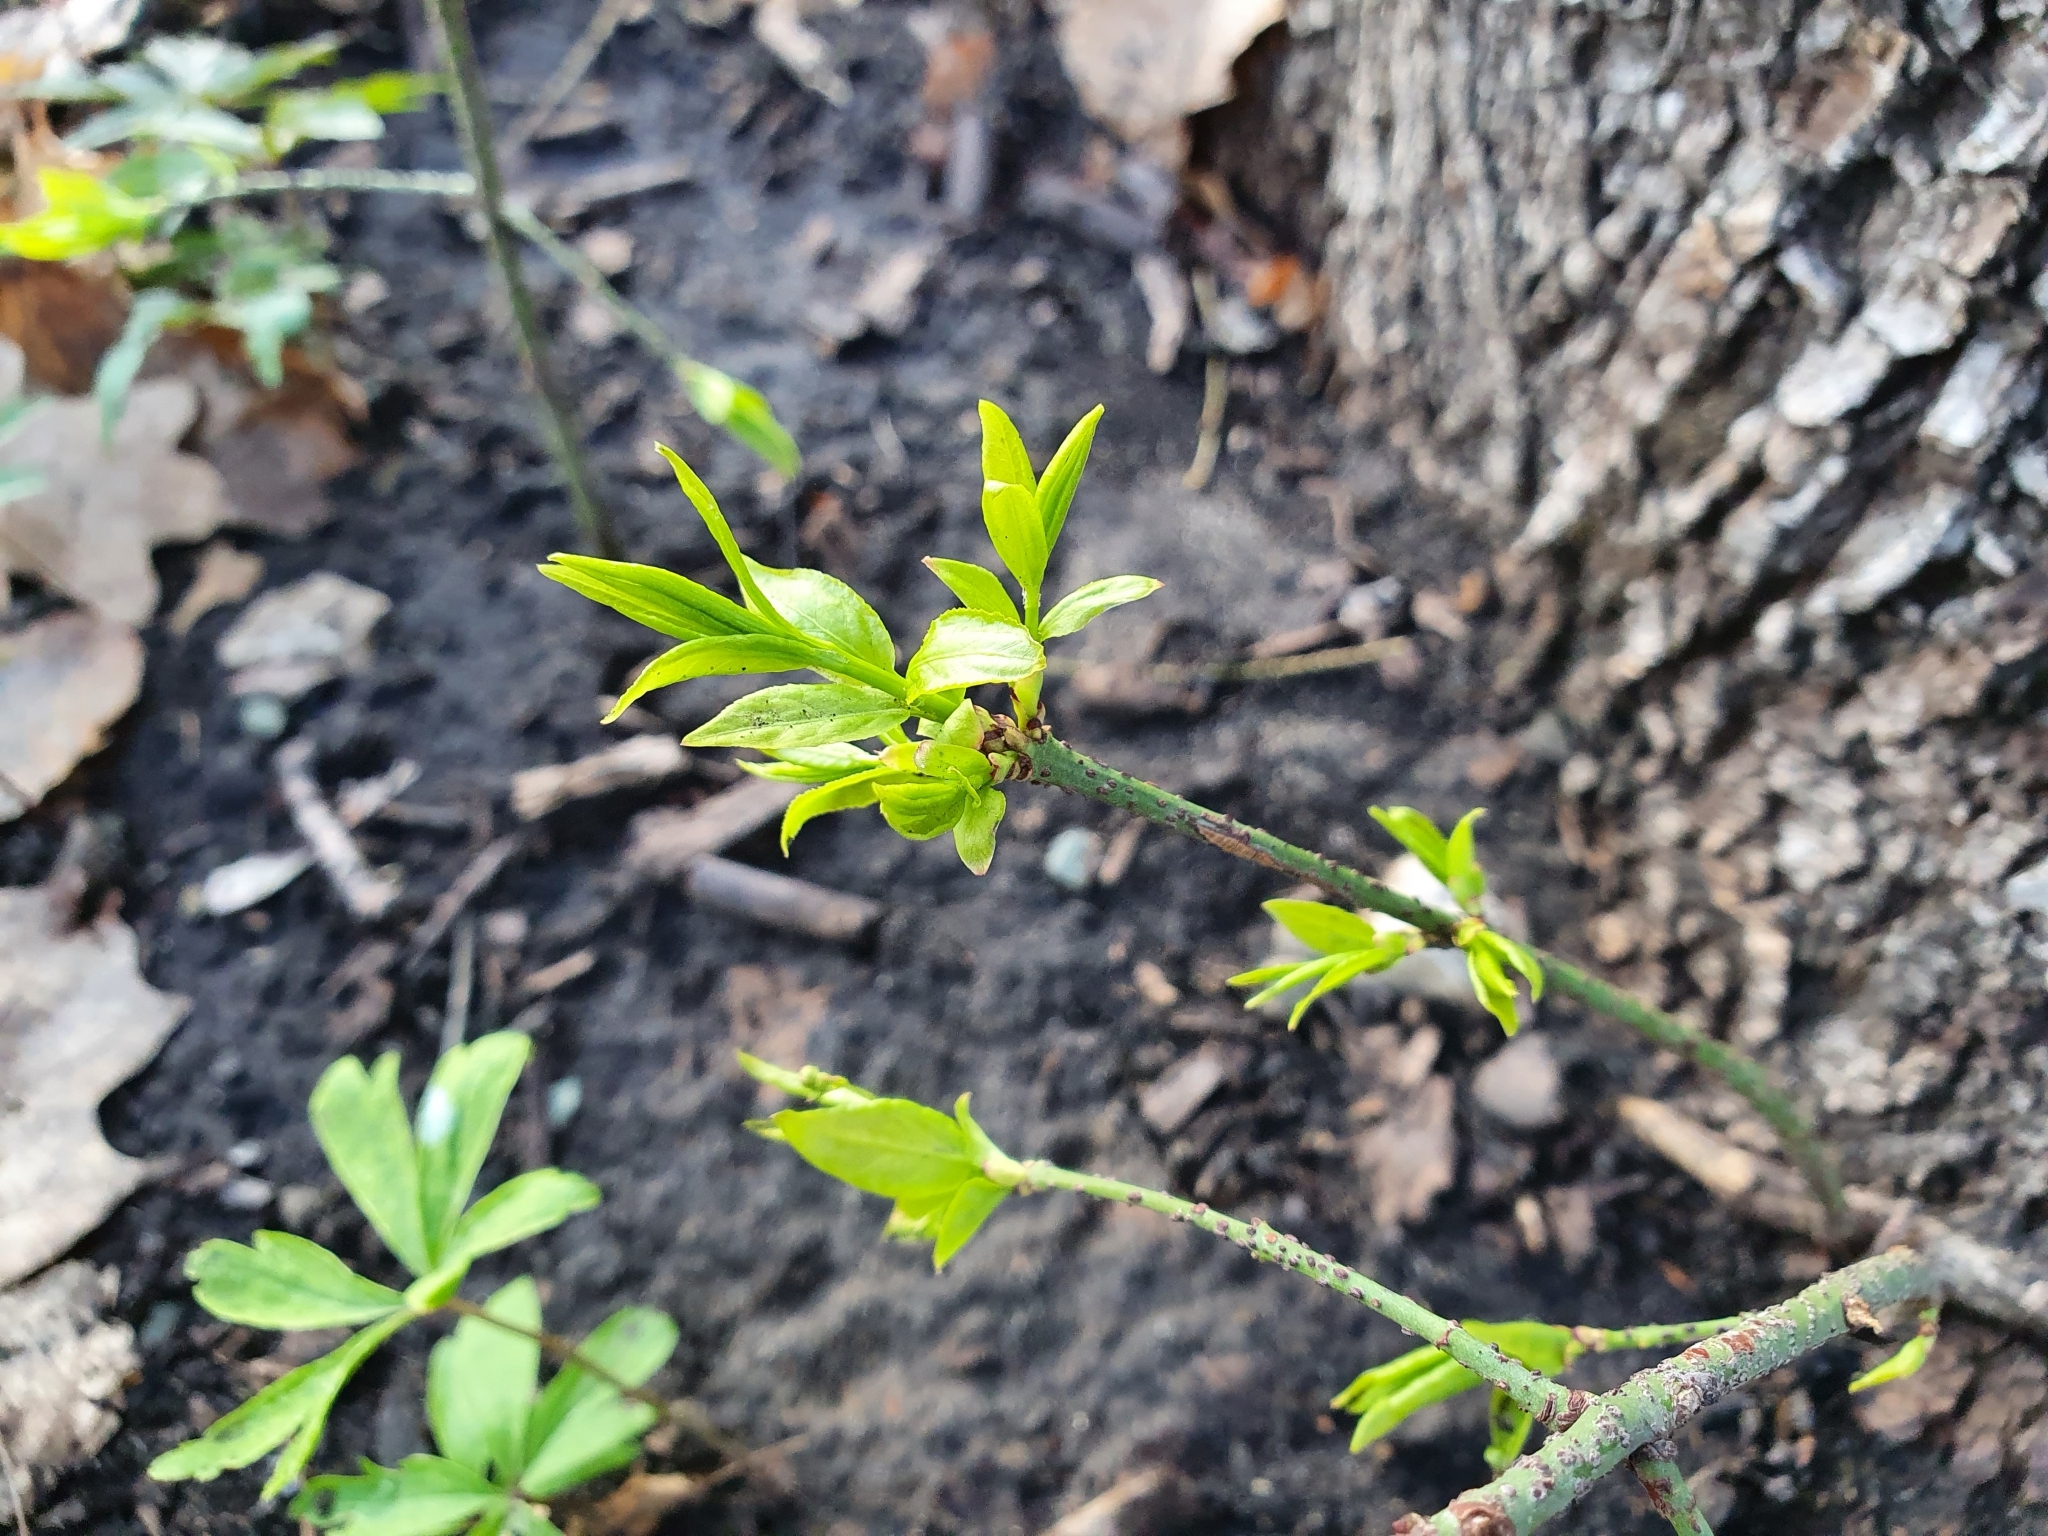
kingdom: Plantae
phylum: Tracheophyta
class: Magnoliopsida
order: Celastrales
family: Celastraceae
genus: Euonymus
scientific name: Euonymus verrucosus
